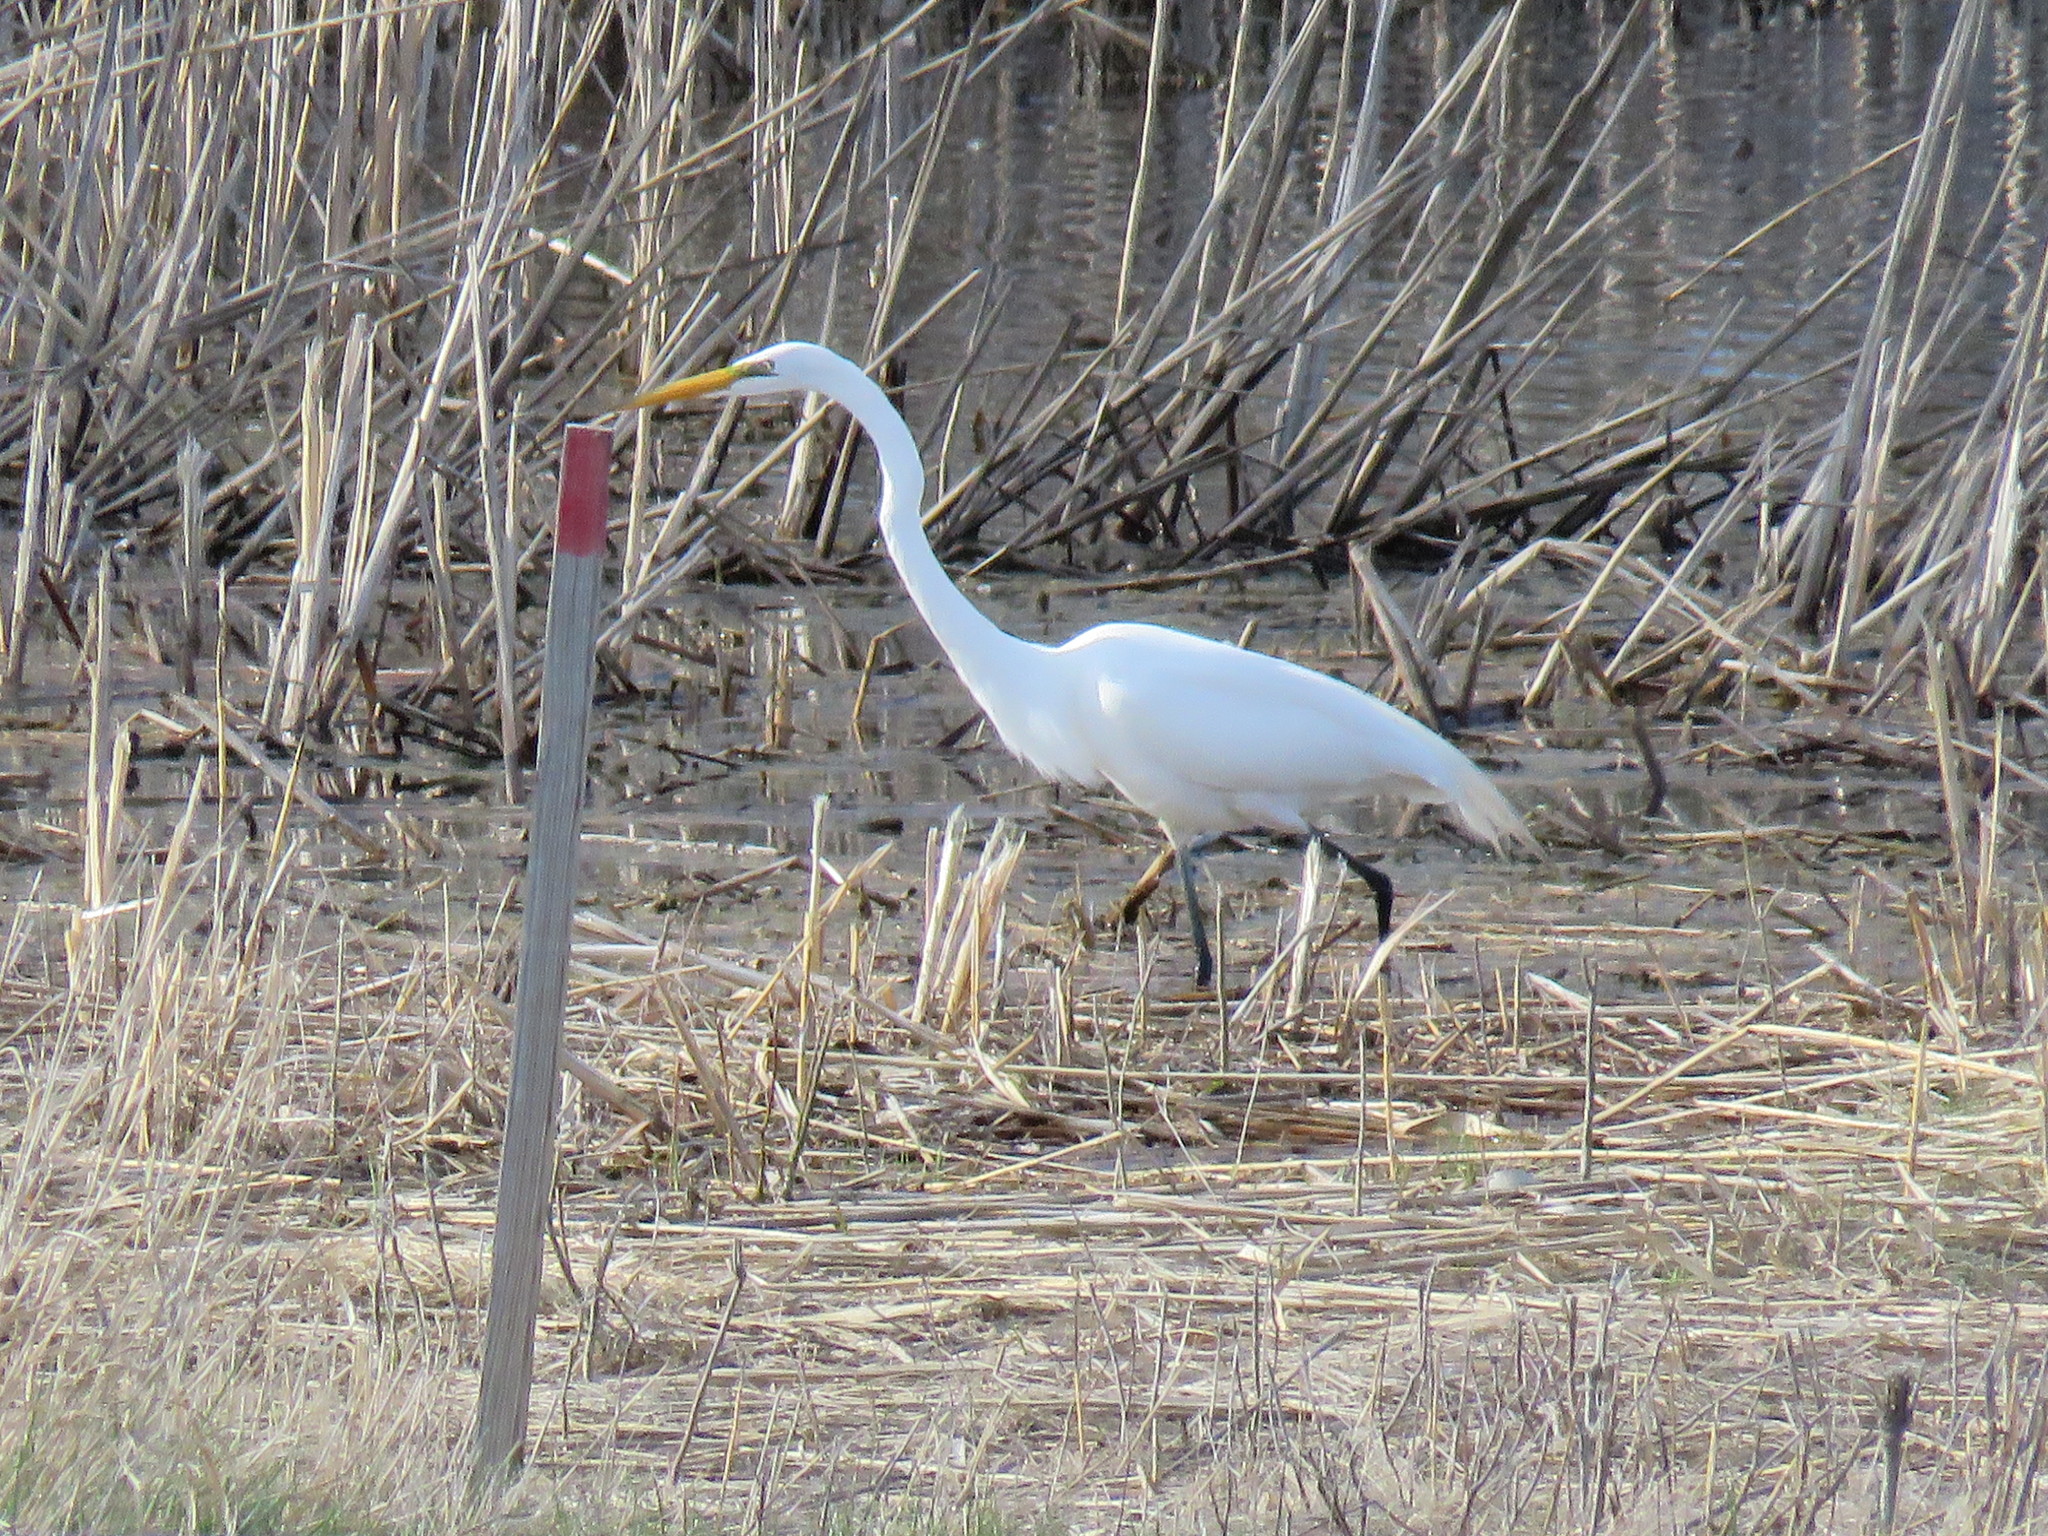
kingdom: Animalia
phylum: Chordata
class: Aves
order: Pelecaniformes
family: Ardeidae
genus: Ardea
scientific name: Ardea alba
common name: Great egret
